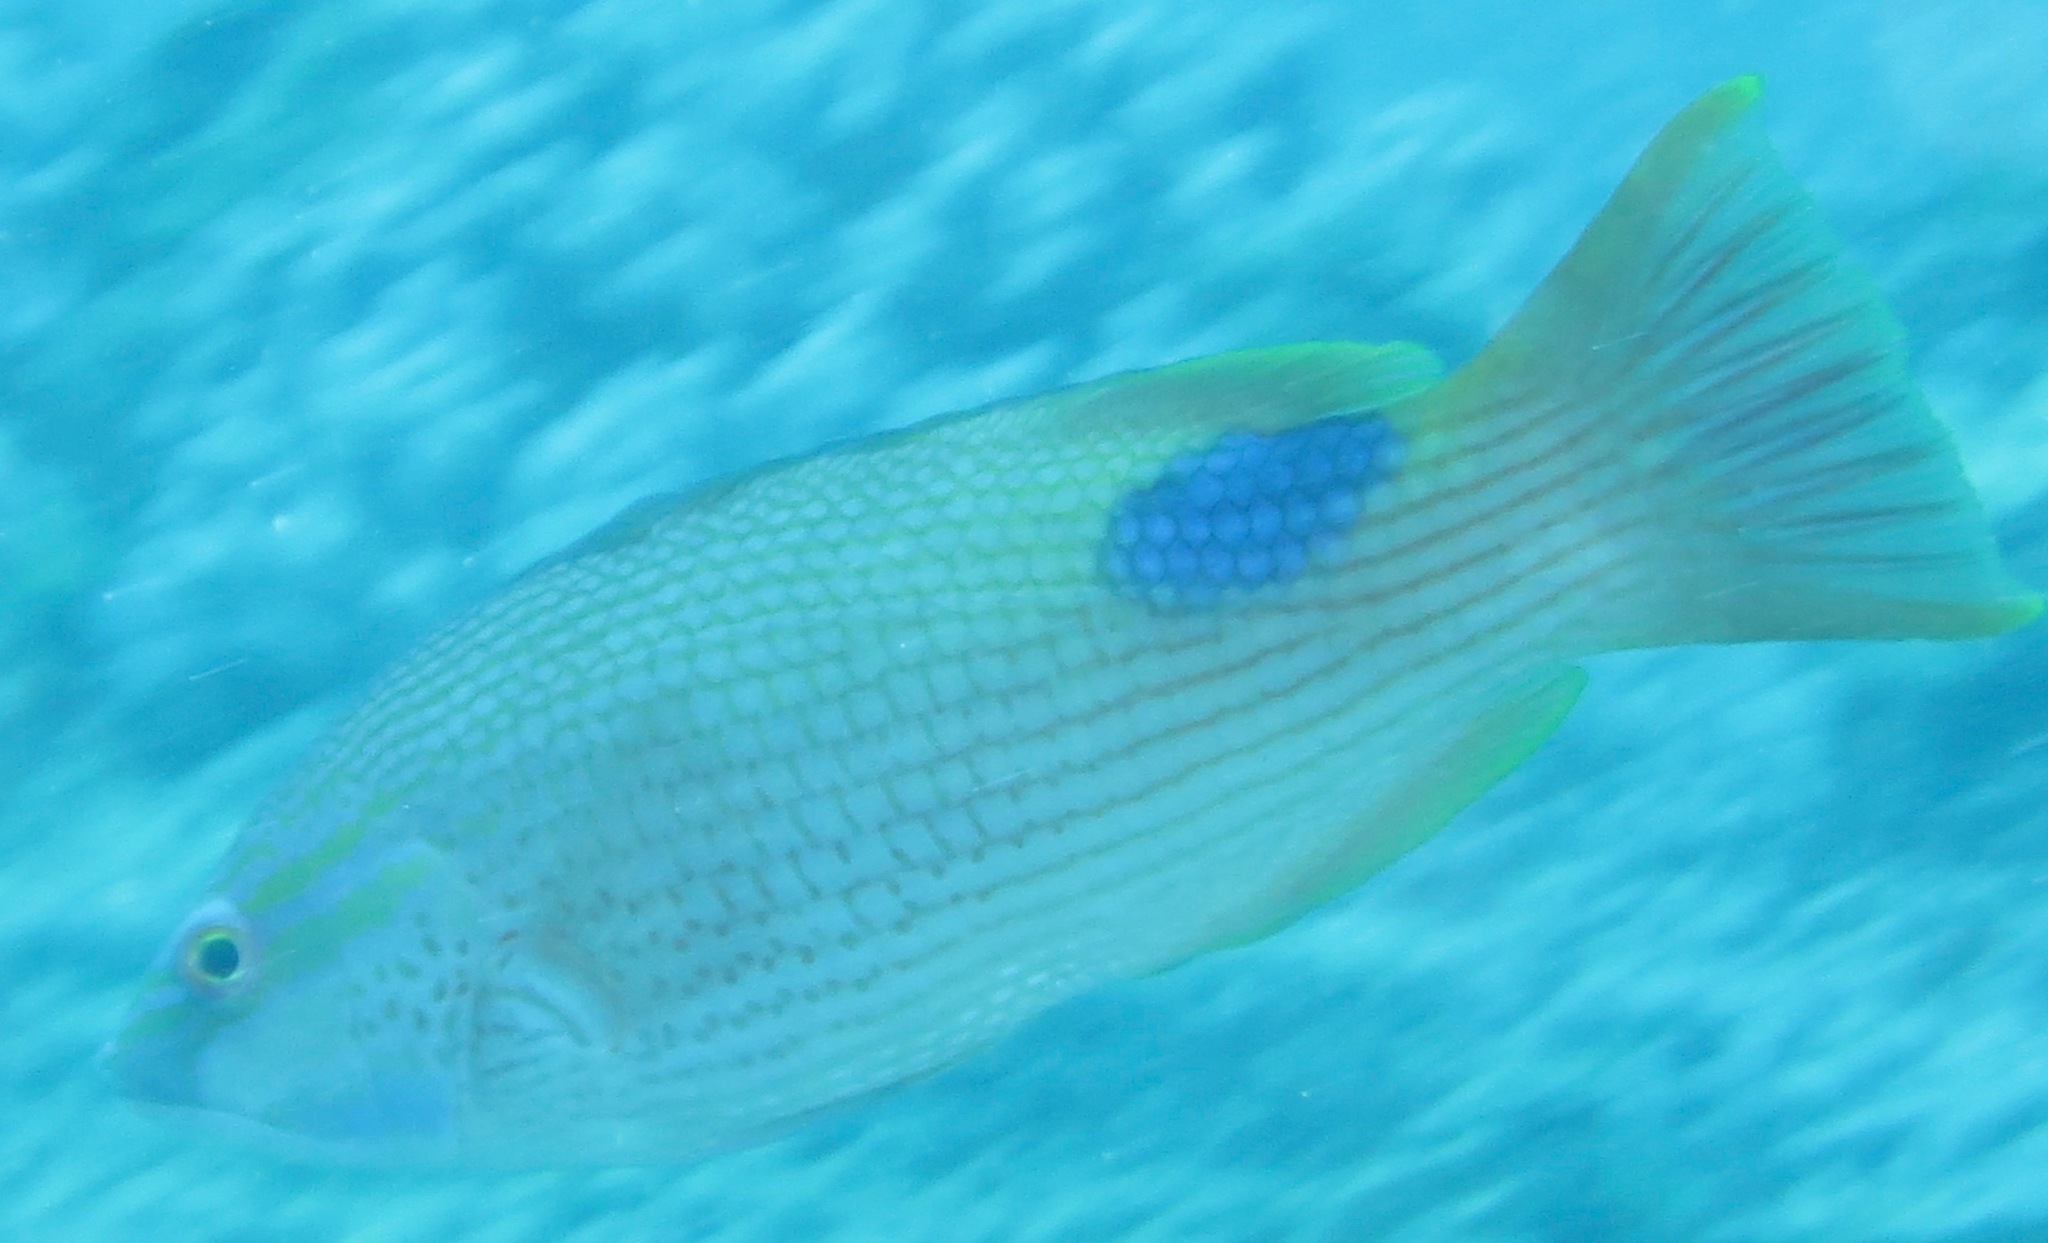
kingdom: Animalia
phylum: Chordata
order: Perciformes
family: Labridae
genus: Bodianus
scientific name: Bodianus bilunulatus
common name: Tarry hogfish
